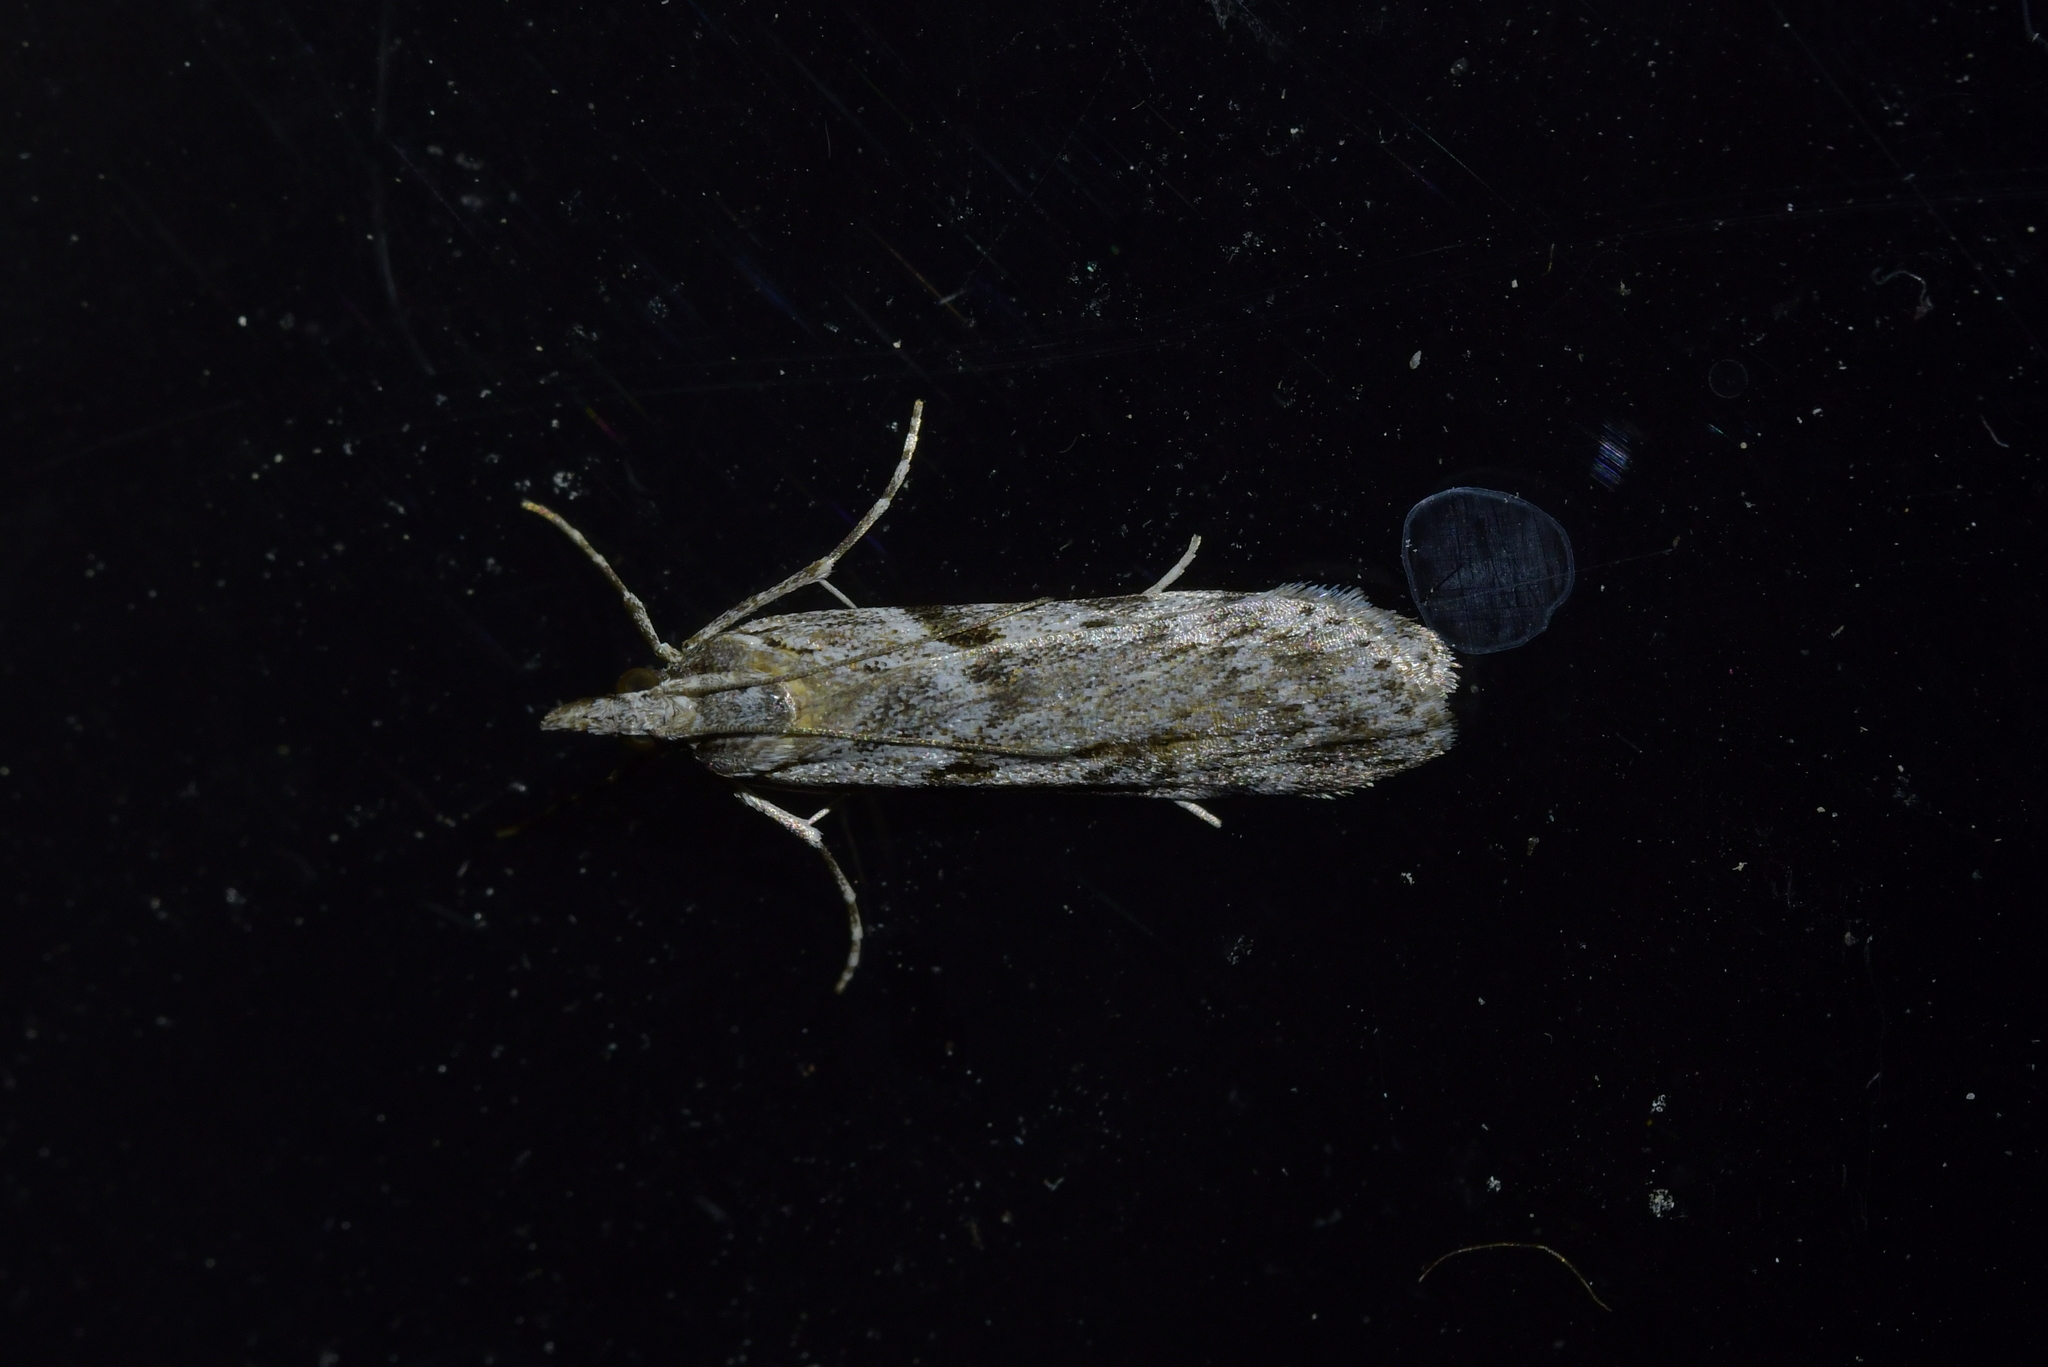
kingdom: Animalia
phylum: Arthropoda
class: Insecta
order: Lepidoptera
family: Crambidae
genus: Scoparia
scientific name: Scoparia halopis
